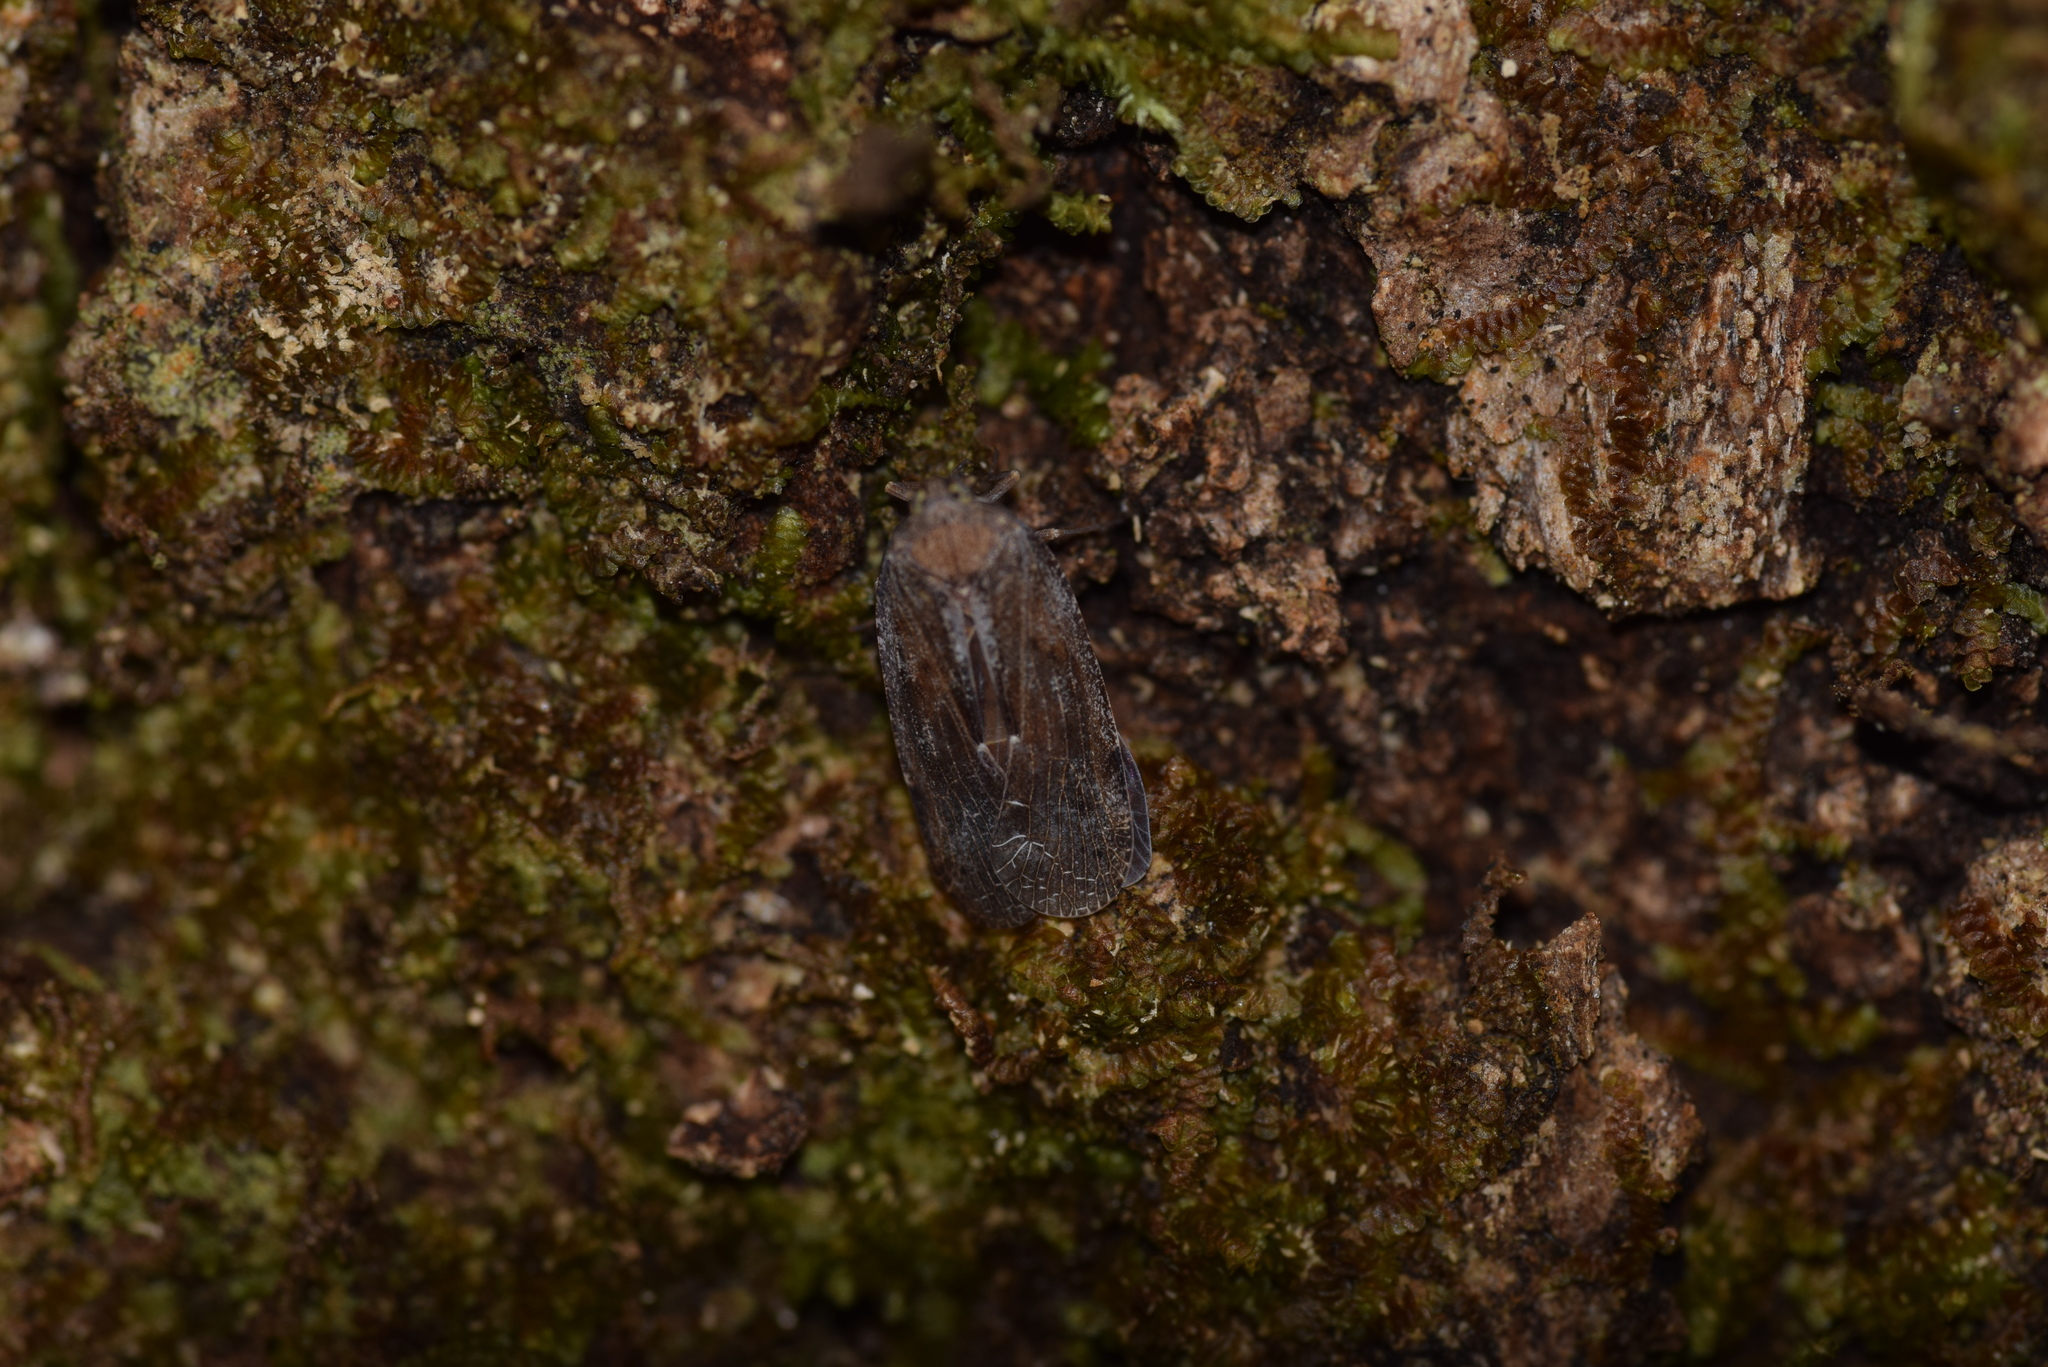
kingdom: Animalia
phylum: Arthropoda
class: Insecta
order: Hemiptera
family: Achilidae
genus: Cixidia
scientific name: Cixidia variegata
